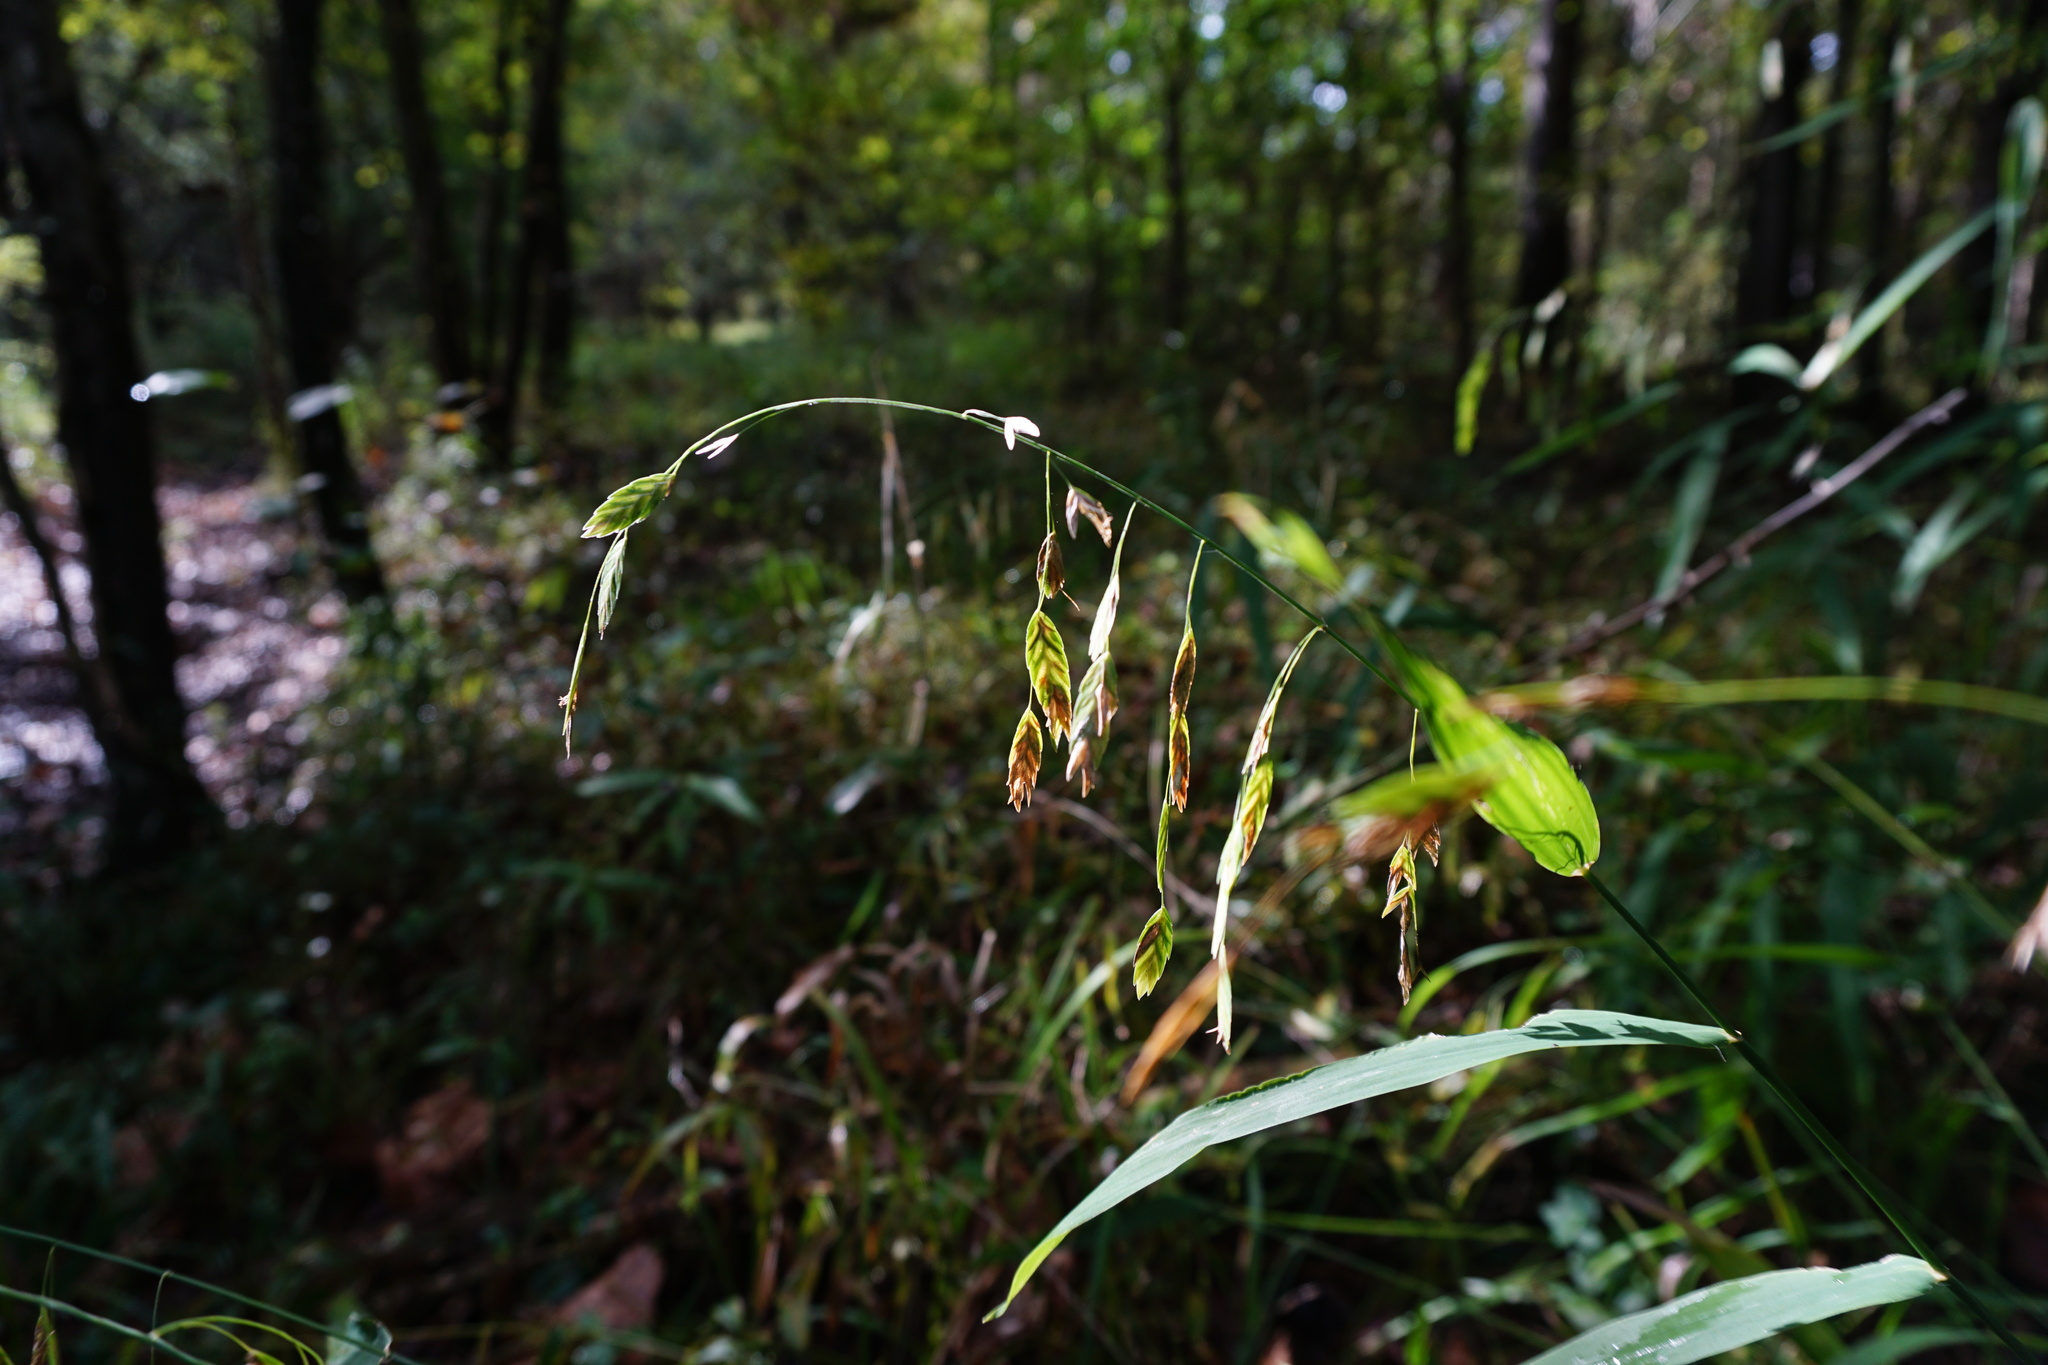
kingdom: Plantae
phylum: Tracheophyta
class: Liliopsida
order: Poales
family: Poaceae
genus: Chasmanthium
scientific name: Chasmanthium latifolium
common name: Broad-leaved chasmanthium
